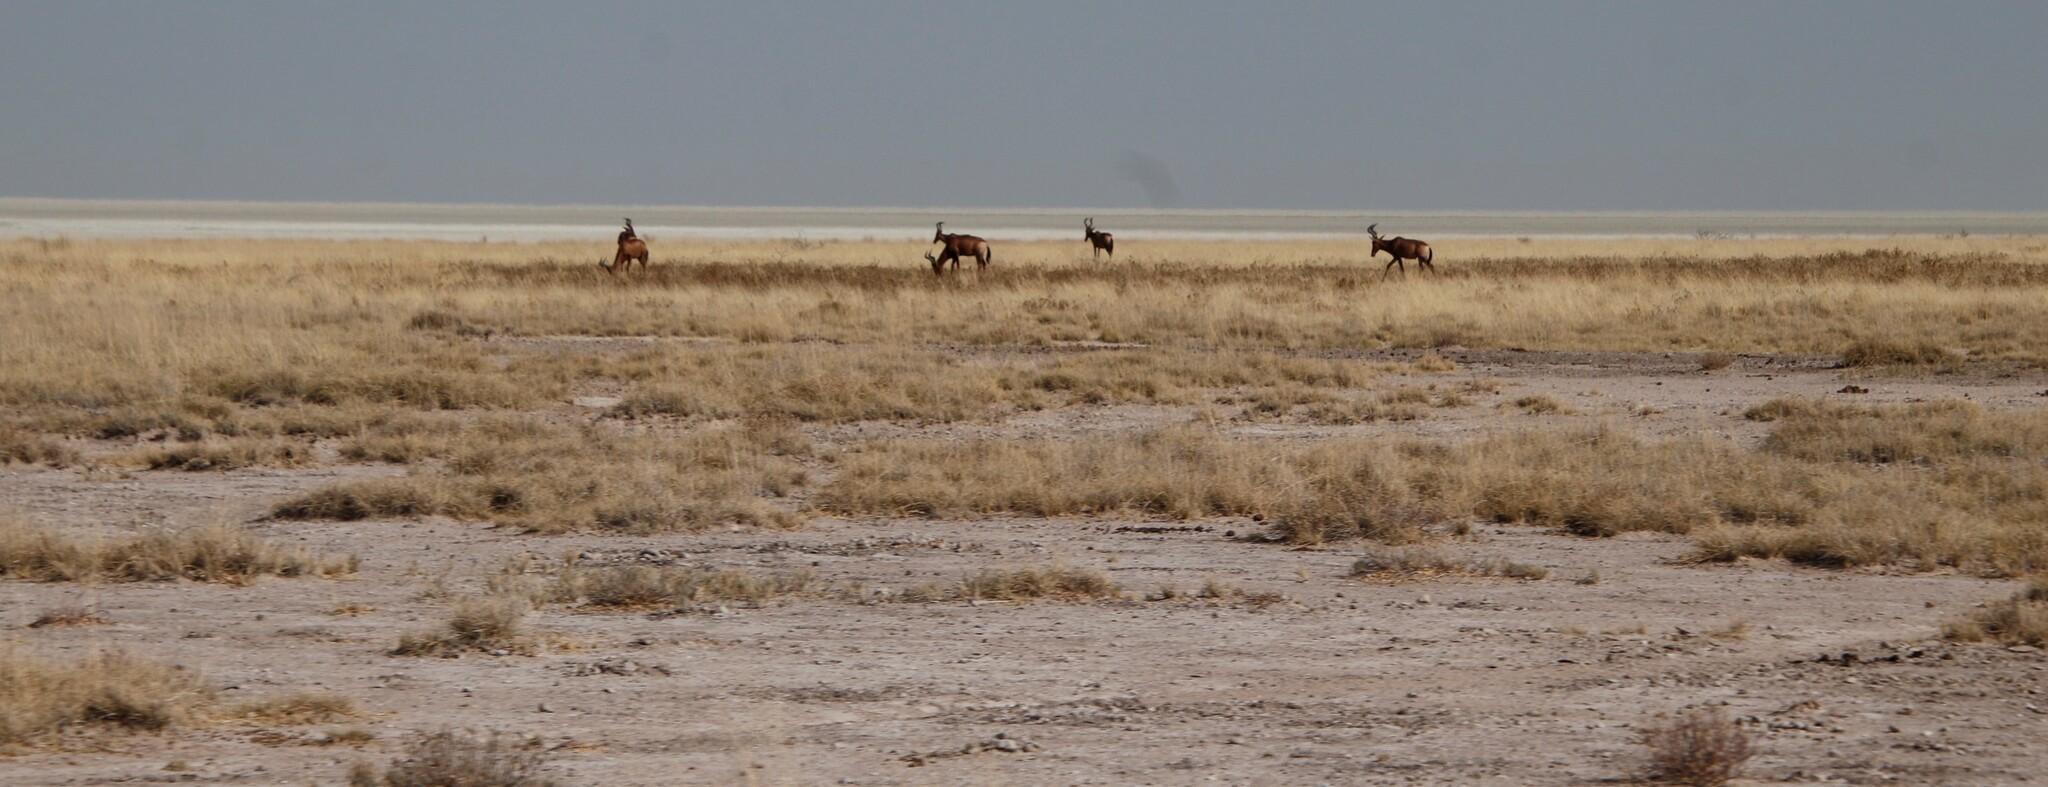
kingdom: Animalia
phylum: Chordata
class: Mammalia
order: Artiodactyla
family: Bovidae
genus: Alcelaphus
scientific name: Alcelaphus caama
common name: Red hartebeest
